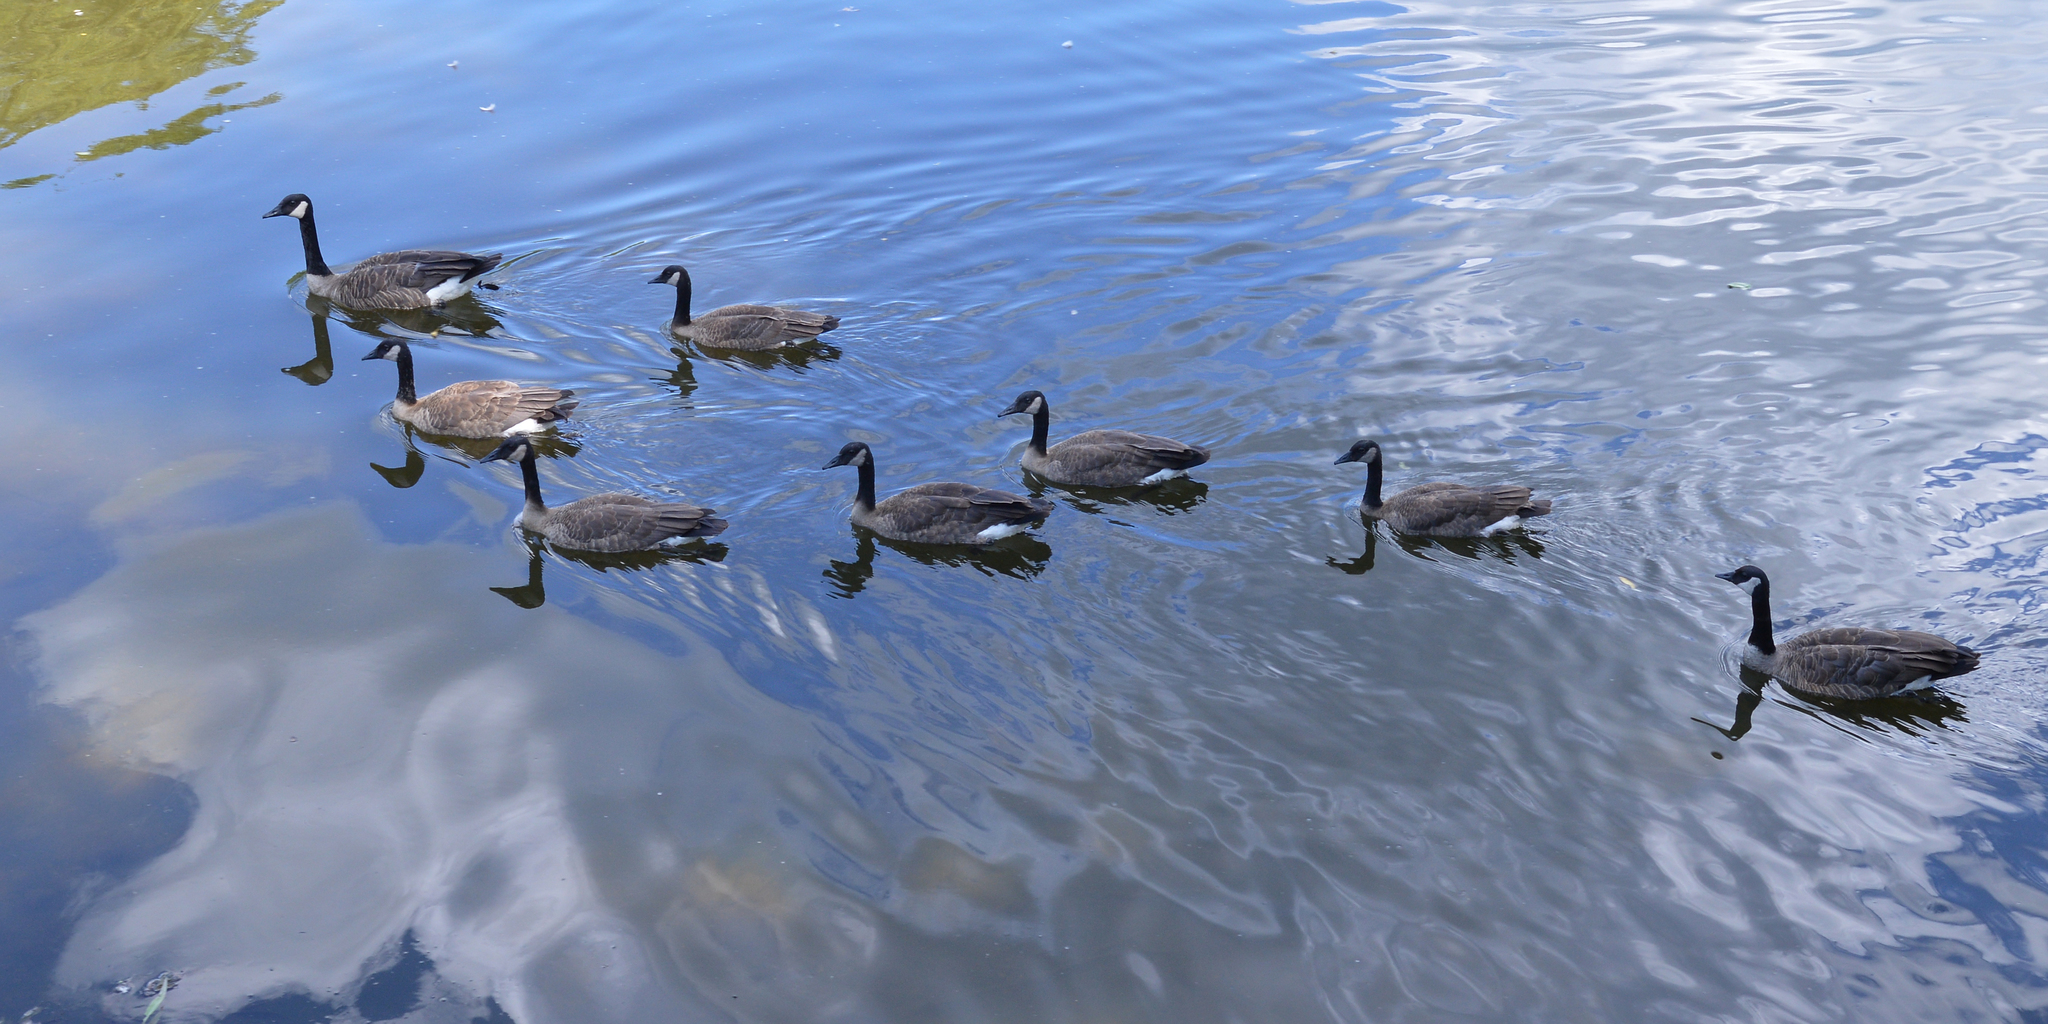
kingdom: Animalia
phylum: Chordata
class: Aves
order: Anseriformes
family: Anatidae
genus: Branta
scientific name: Branta canadensis
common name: Canada goose
